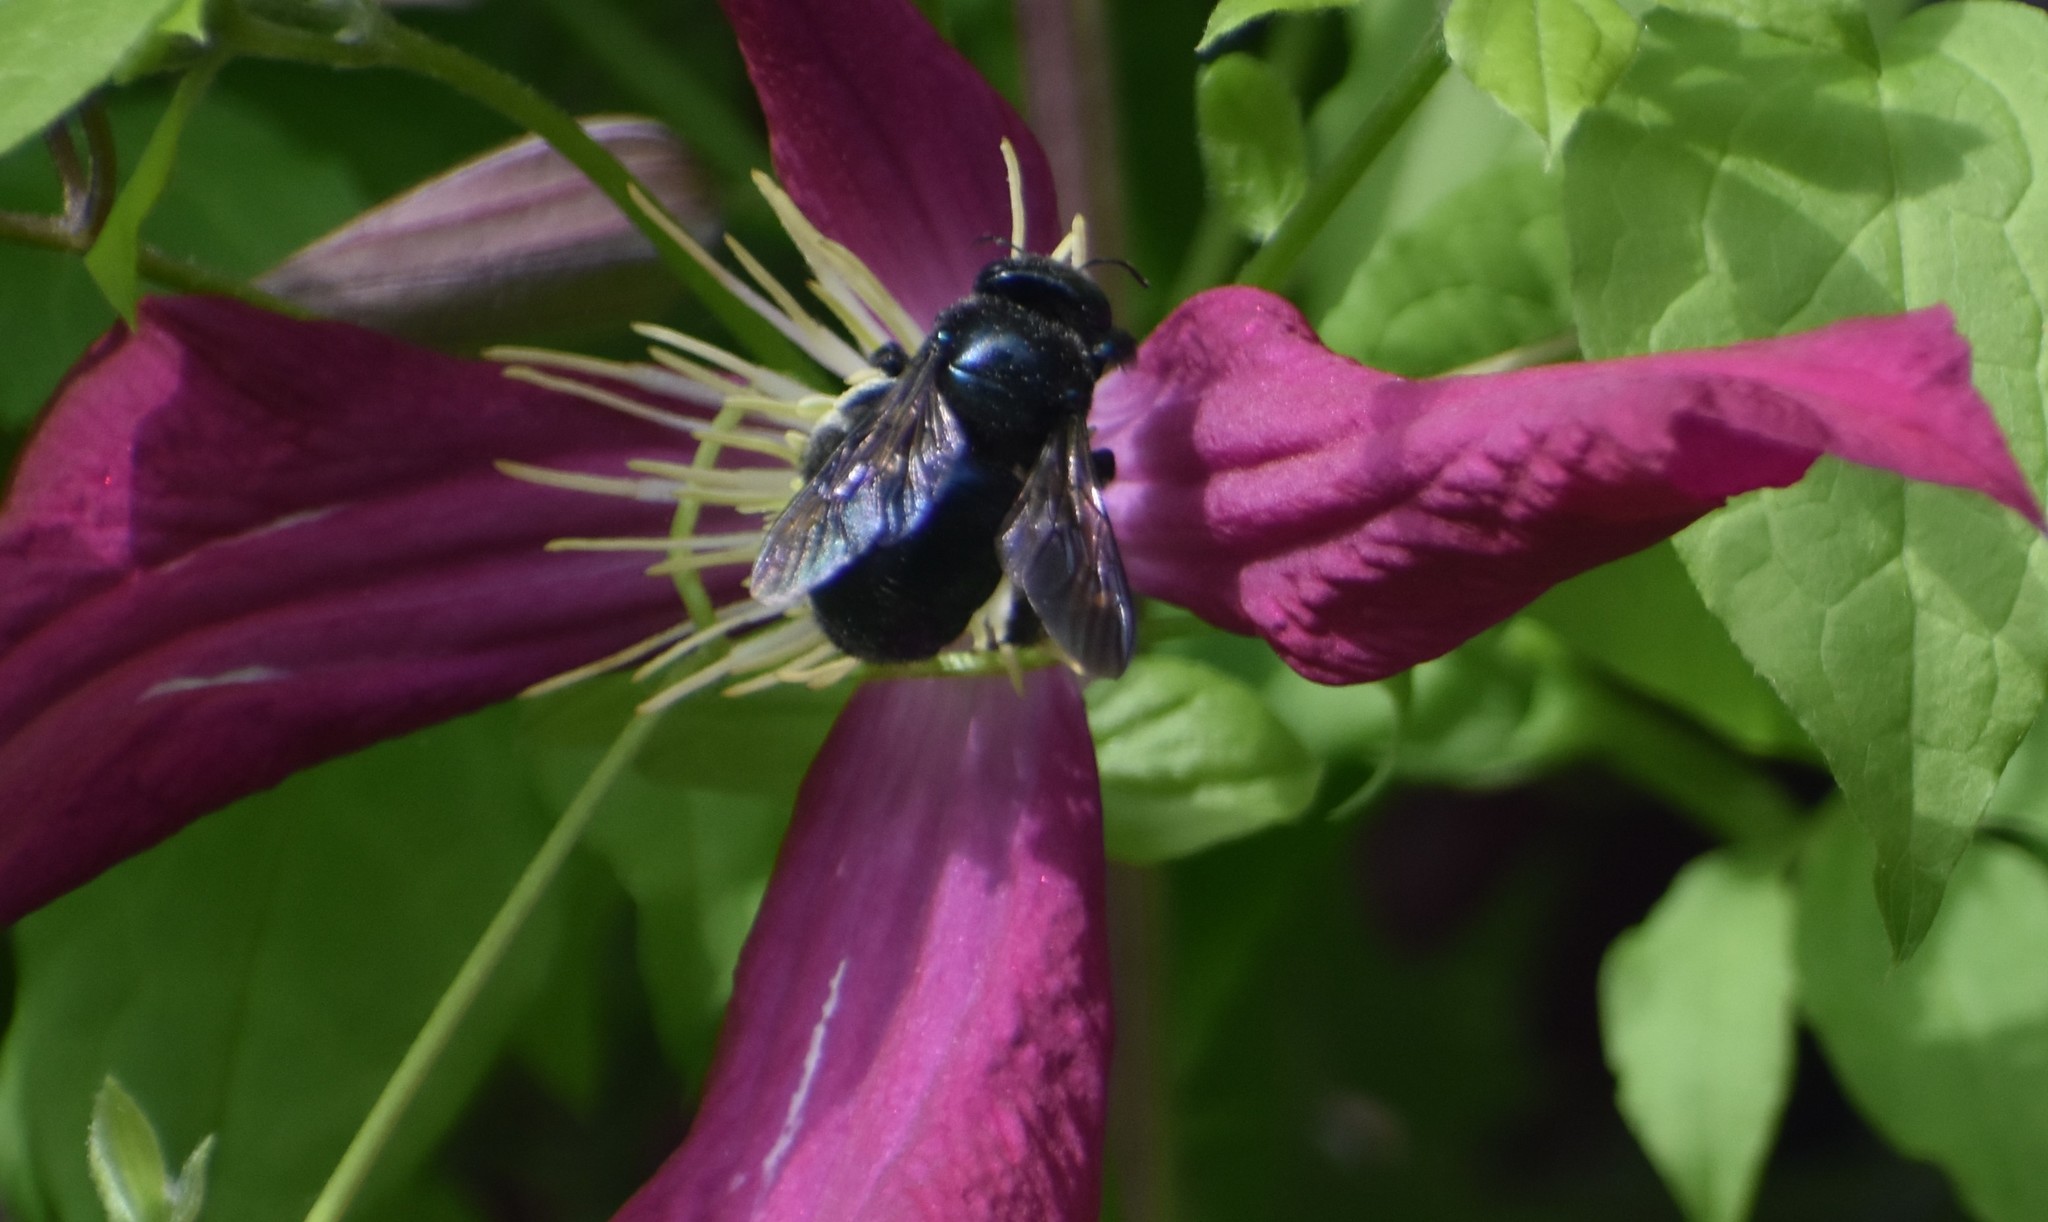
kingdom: Animalia
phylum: Arthropoda
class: Insecta
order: Hymenoptera
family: Apidae
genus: Xylocopa
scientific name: Xylocopa micans
